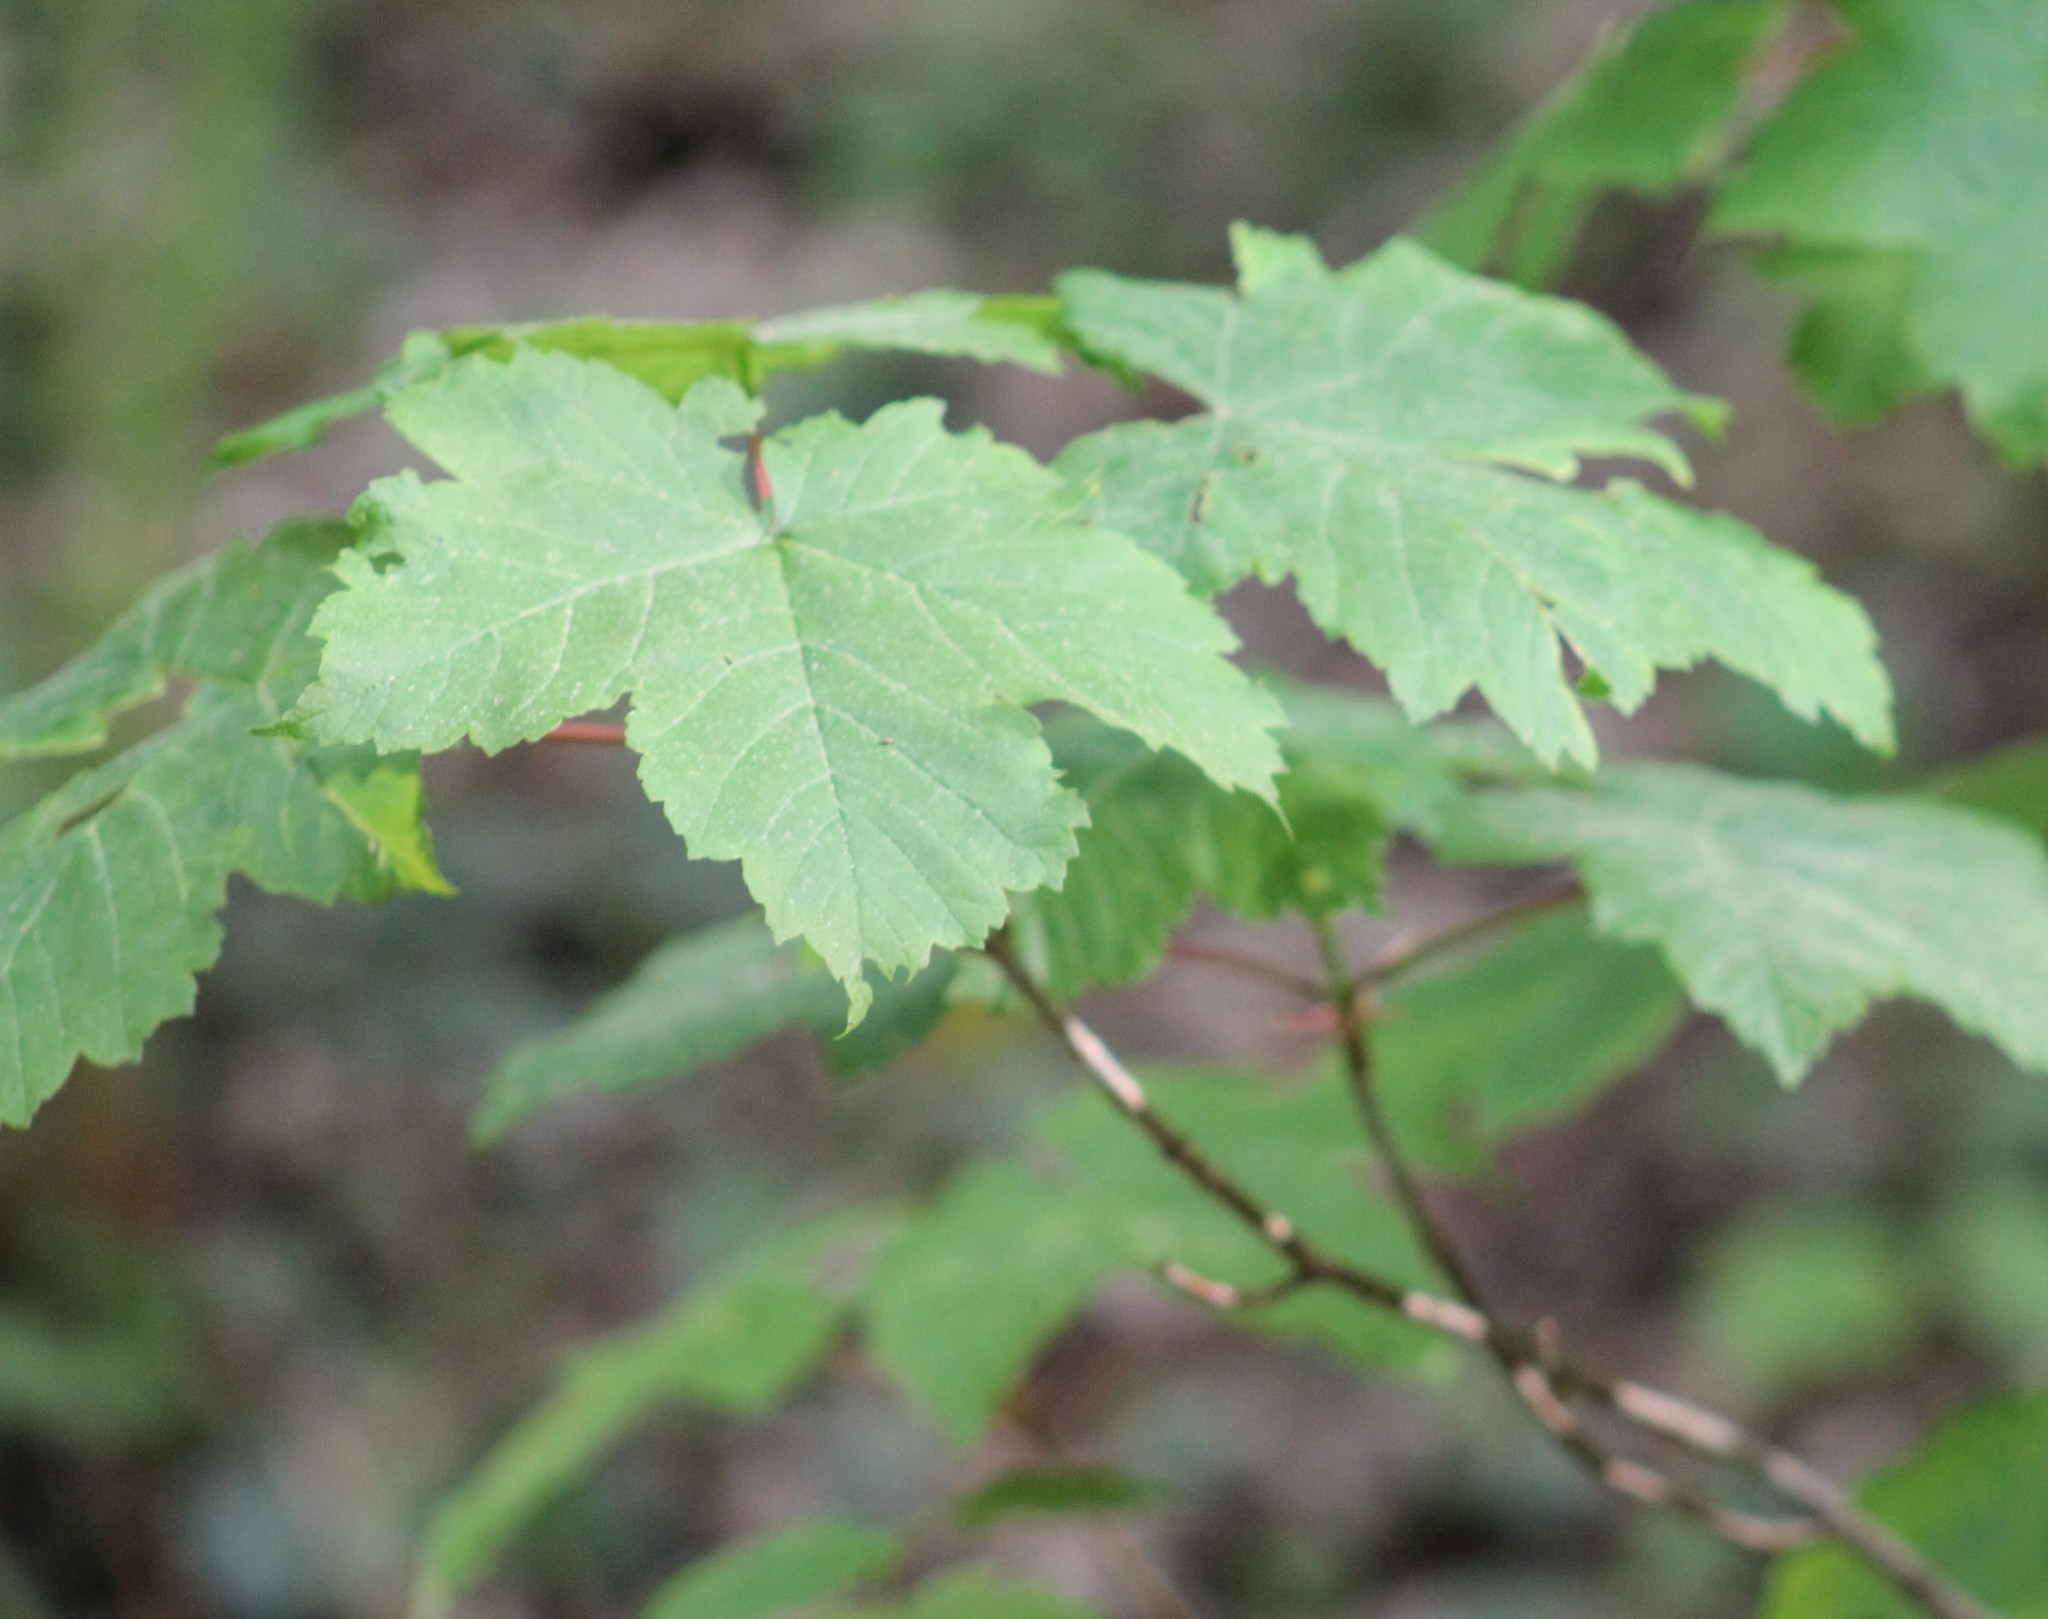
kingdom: Plantae
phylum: Tracheophyta
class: Magnoliopsida
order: Sapindales
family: Sapindaceae
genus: Acer
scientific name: Acer pseudoplatanus
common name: Sycamore
